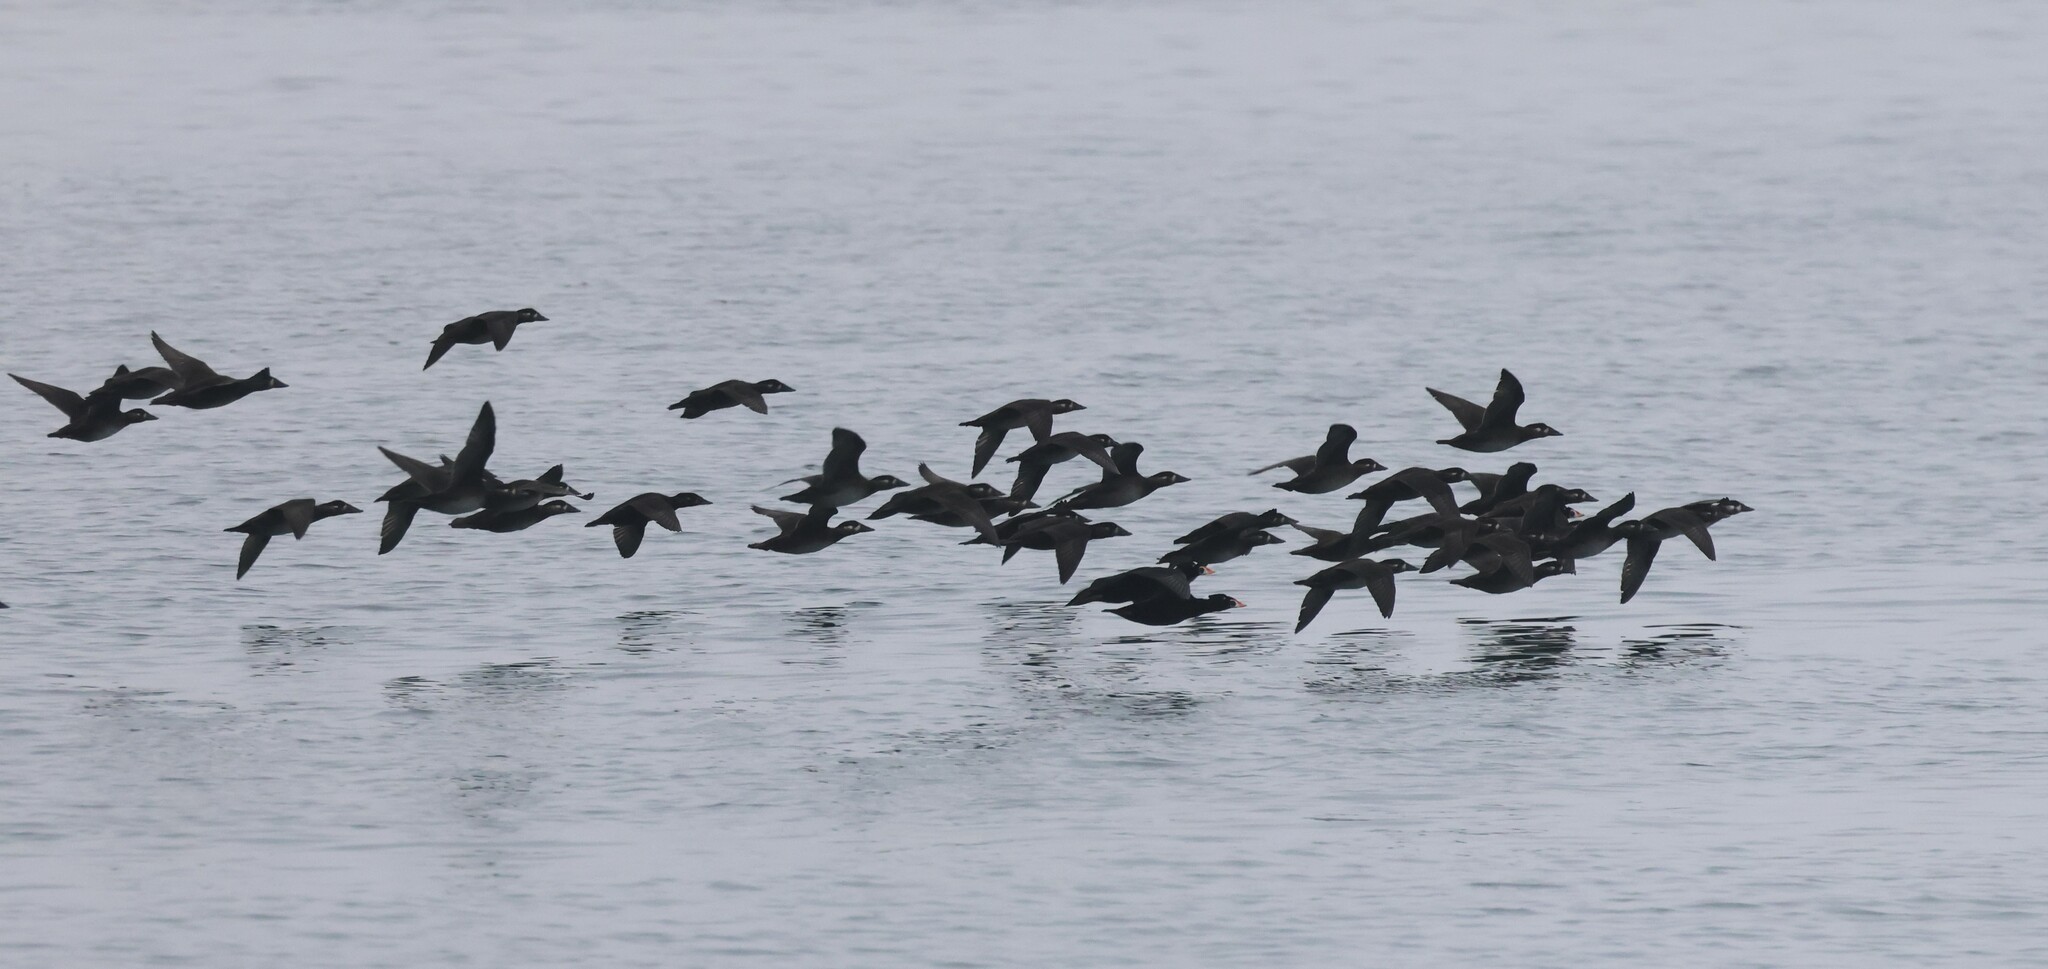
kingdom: Animalia
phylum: Chordata
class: Aves
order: Anseriformes
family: Anatidae
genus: Melanitta
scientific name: Melanitta perspicillata
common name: Surf scoter
